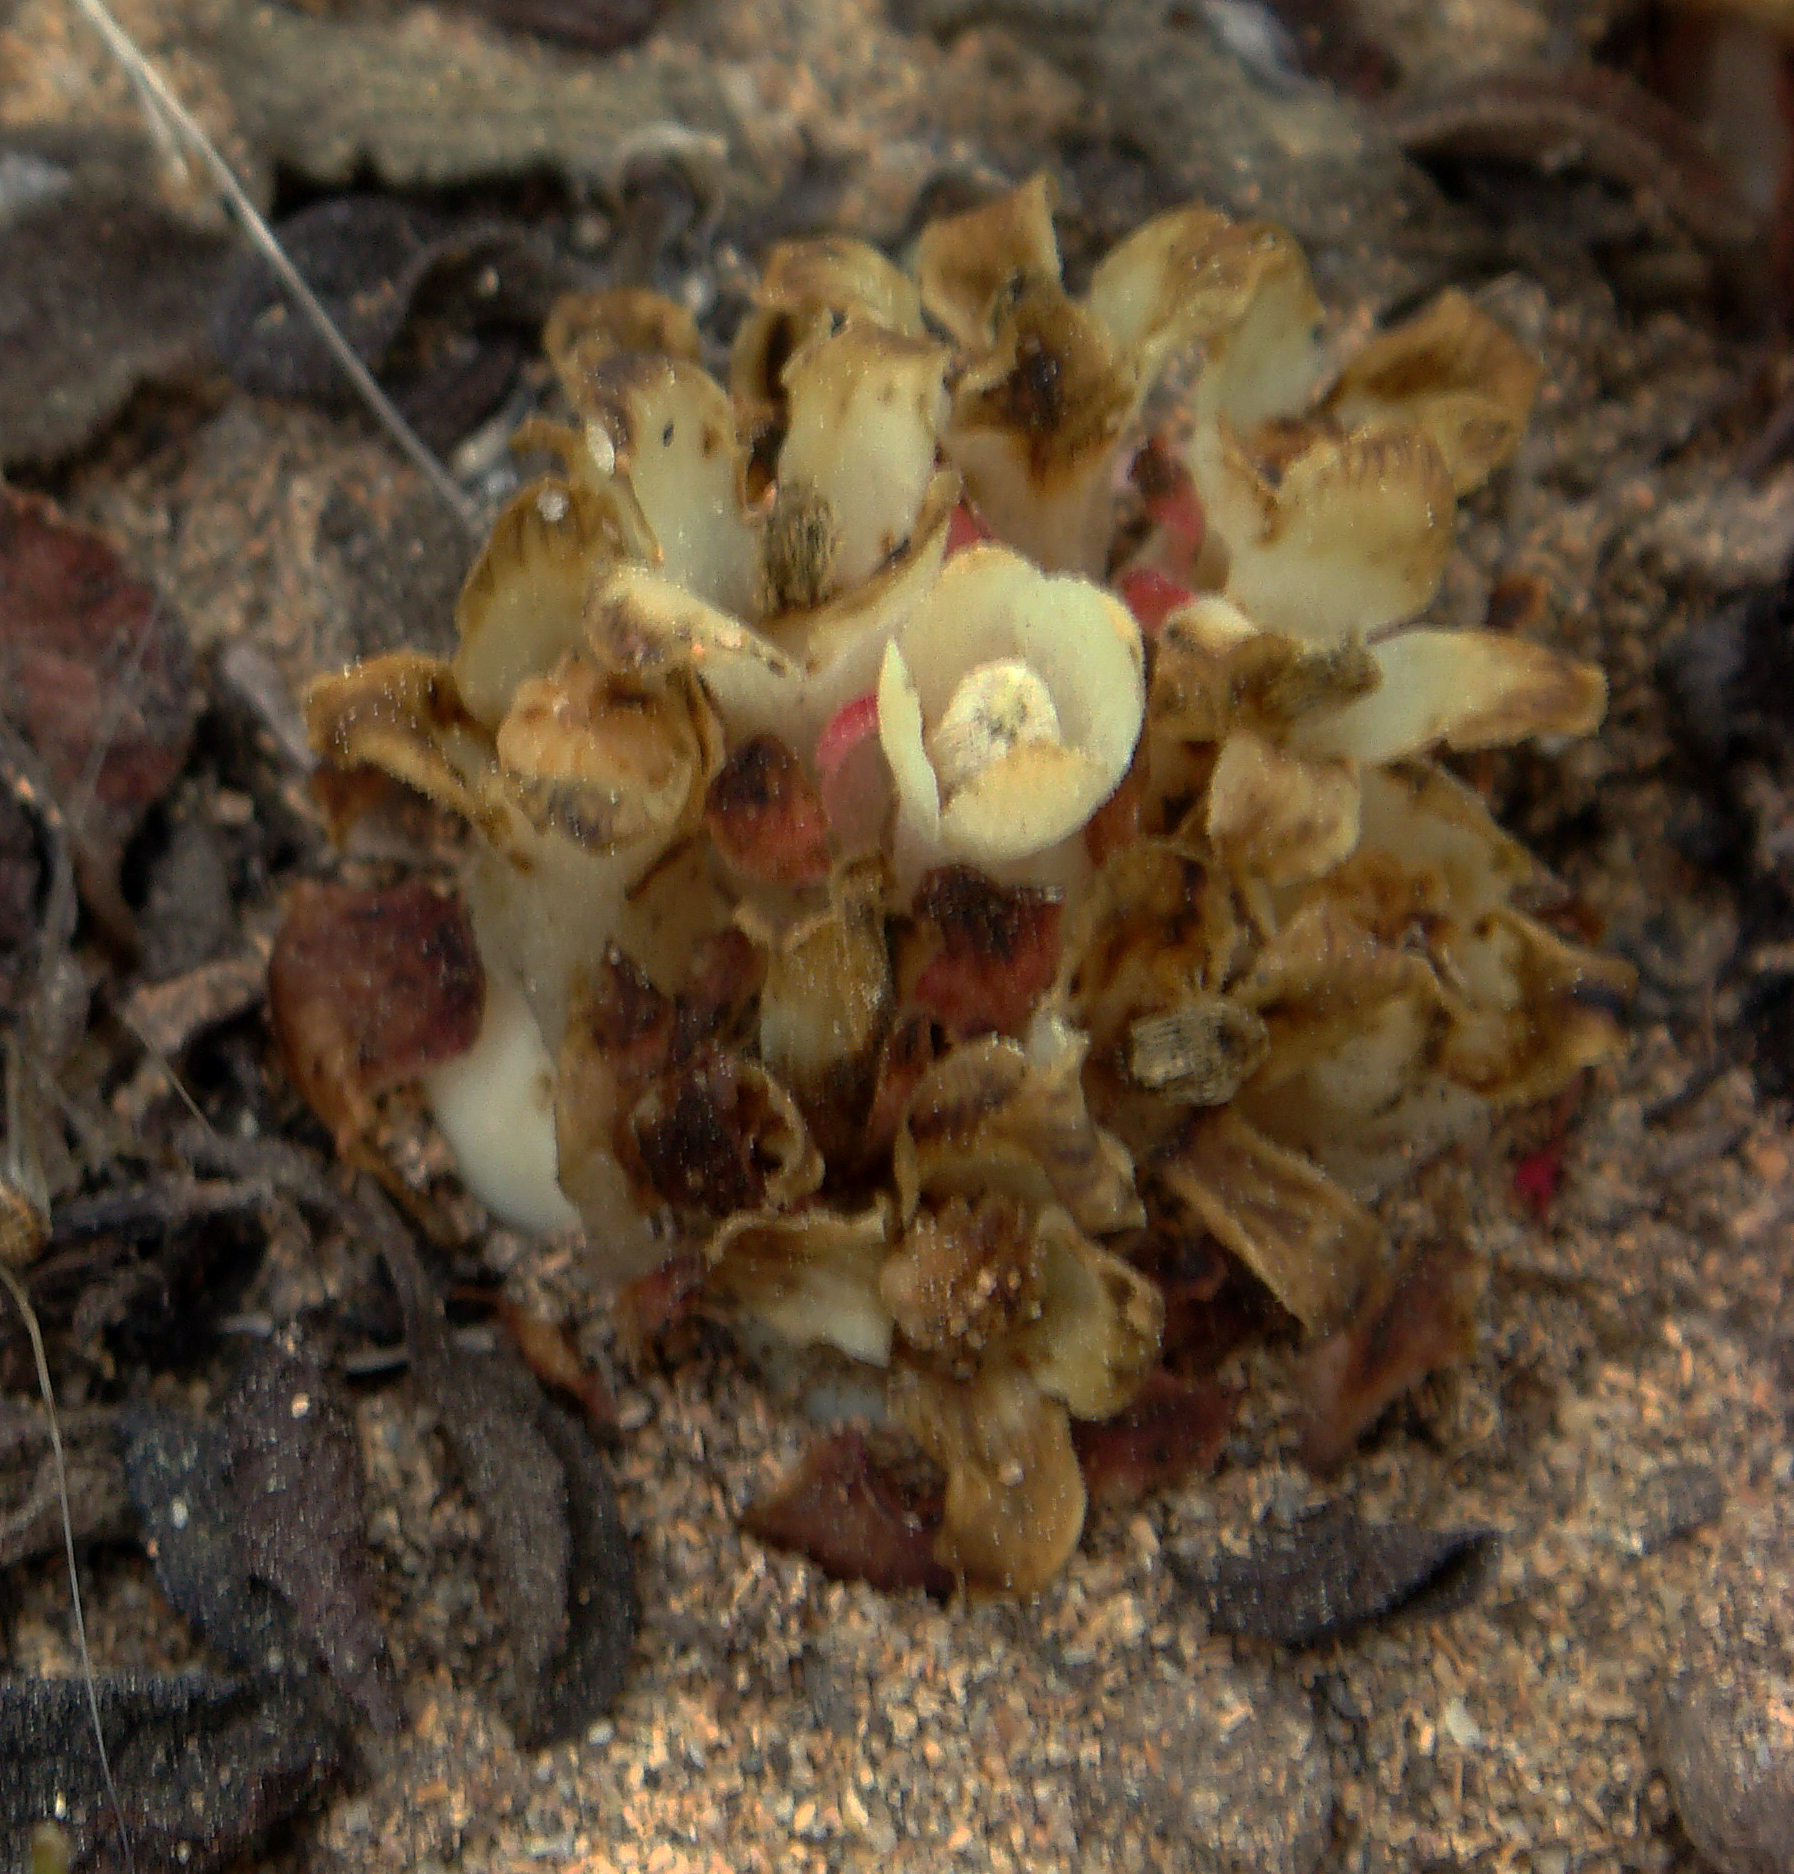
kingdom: Plantae
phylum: Tracheophyta
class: Magnoliopsida
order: Malvales
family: Cytinaceae
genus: Cytinus
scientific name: Cytinus ruber
